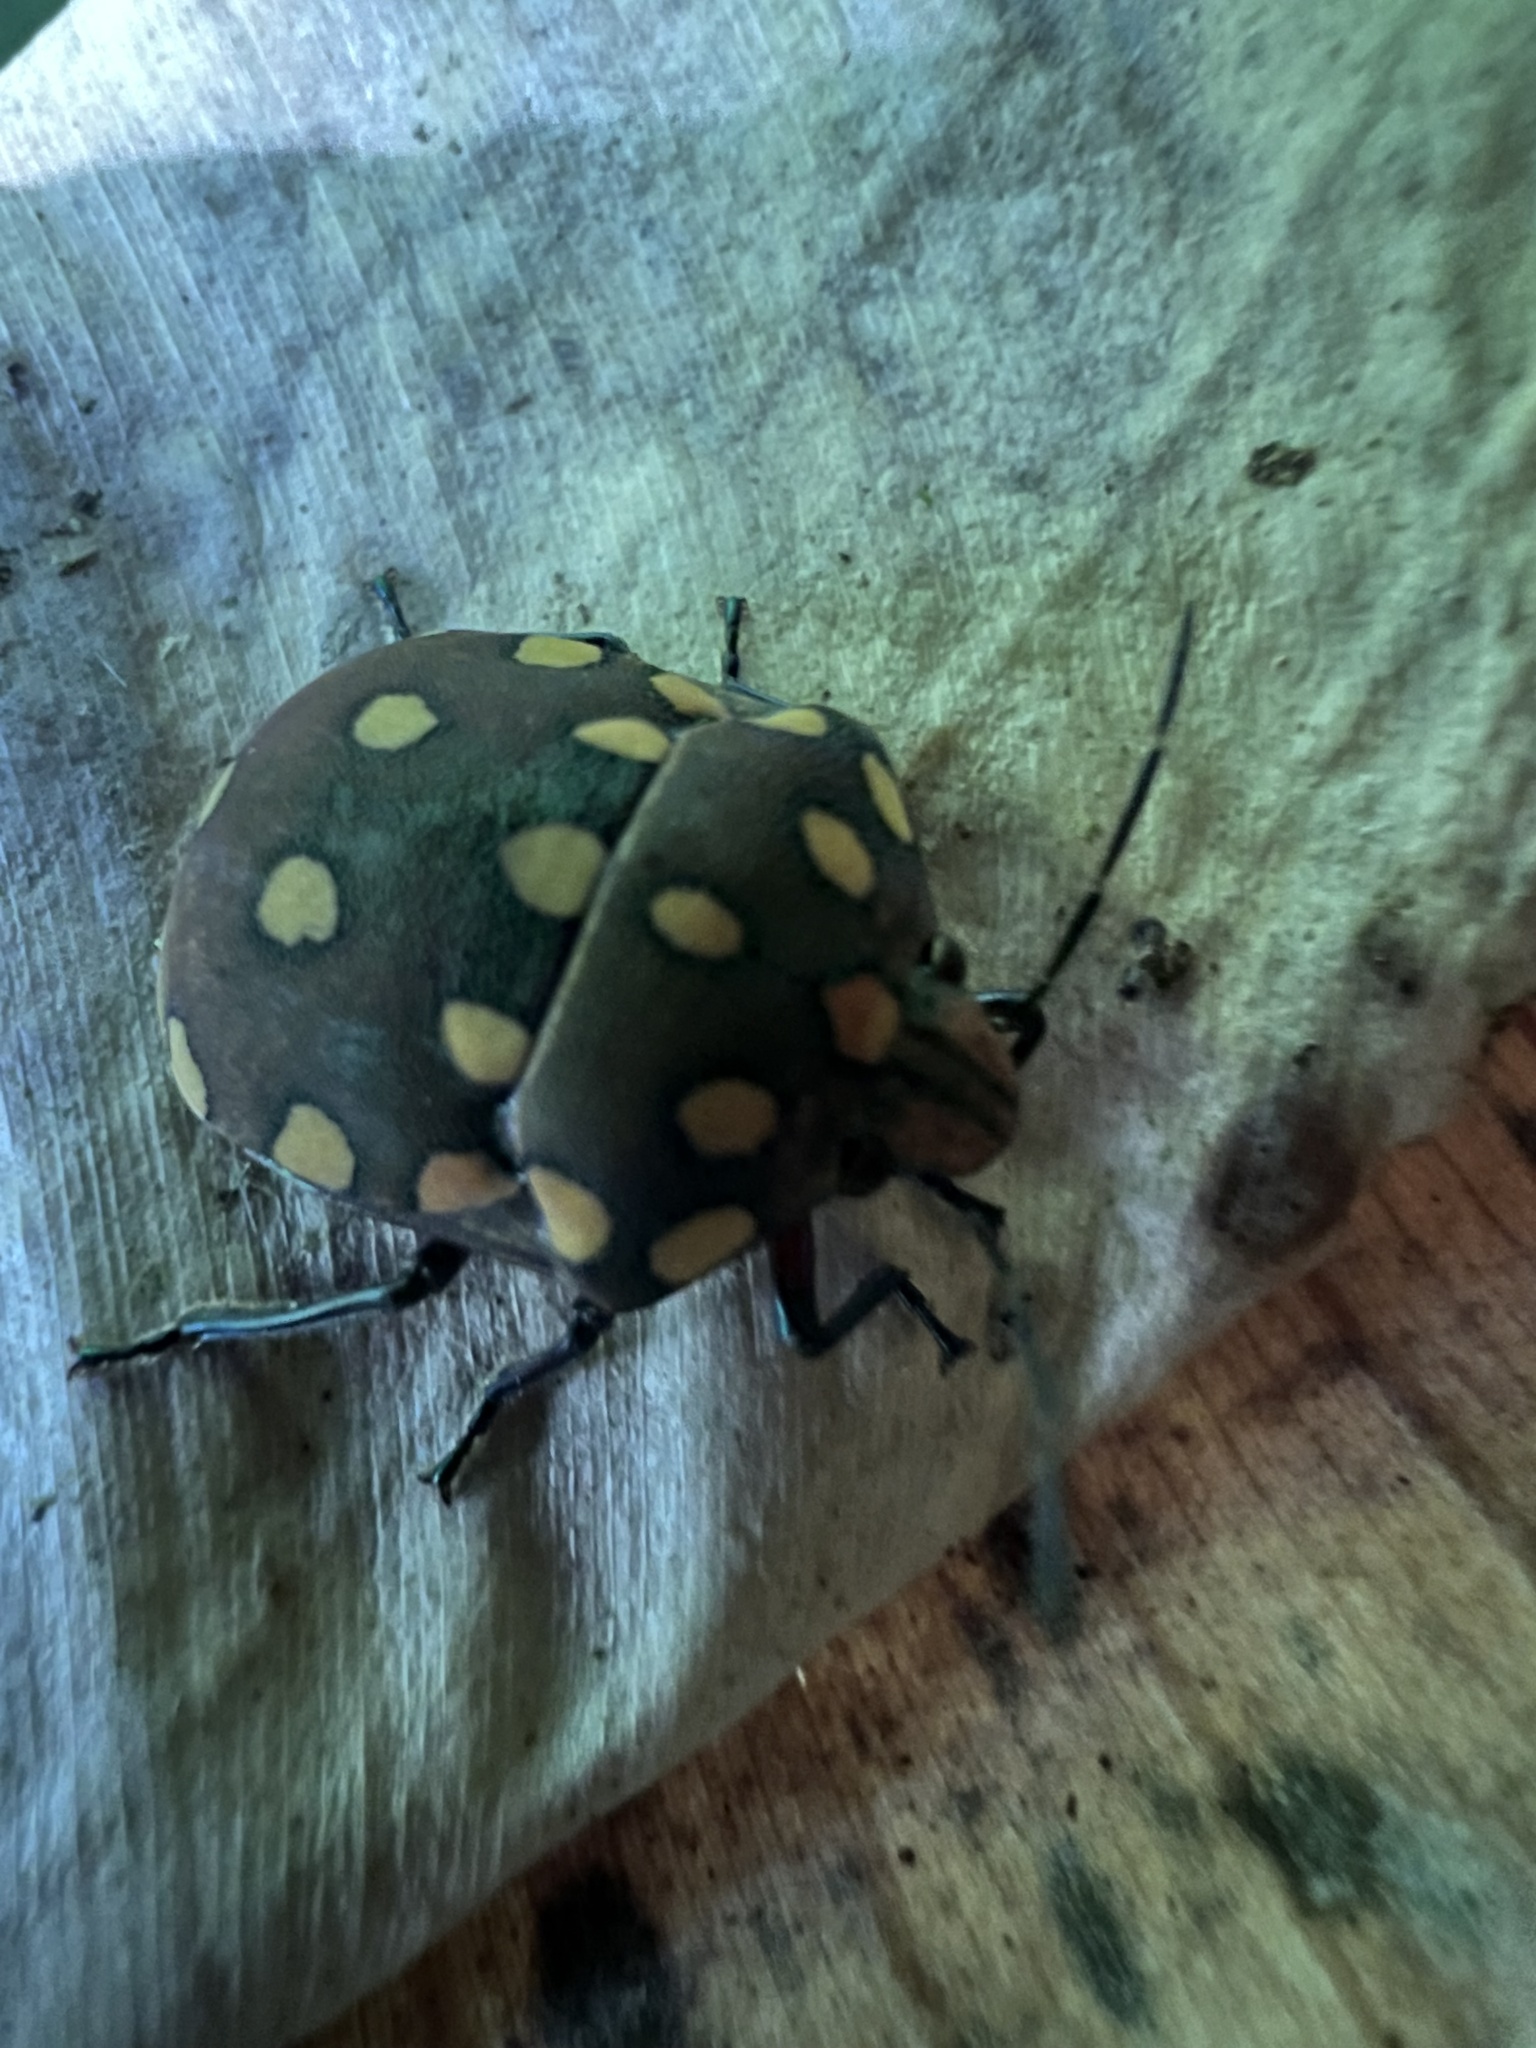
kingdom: Animalia
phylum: Arthropoda
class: Insecta
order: Hemiptera
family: Scutelleridae
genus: Pachycoris
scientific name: Pachycoris torridus
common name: Torrid jewel bug
